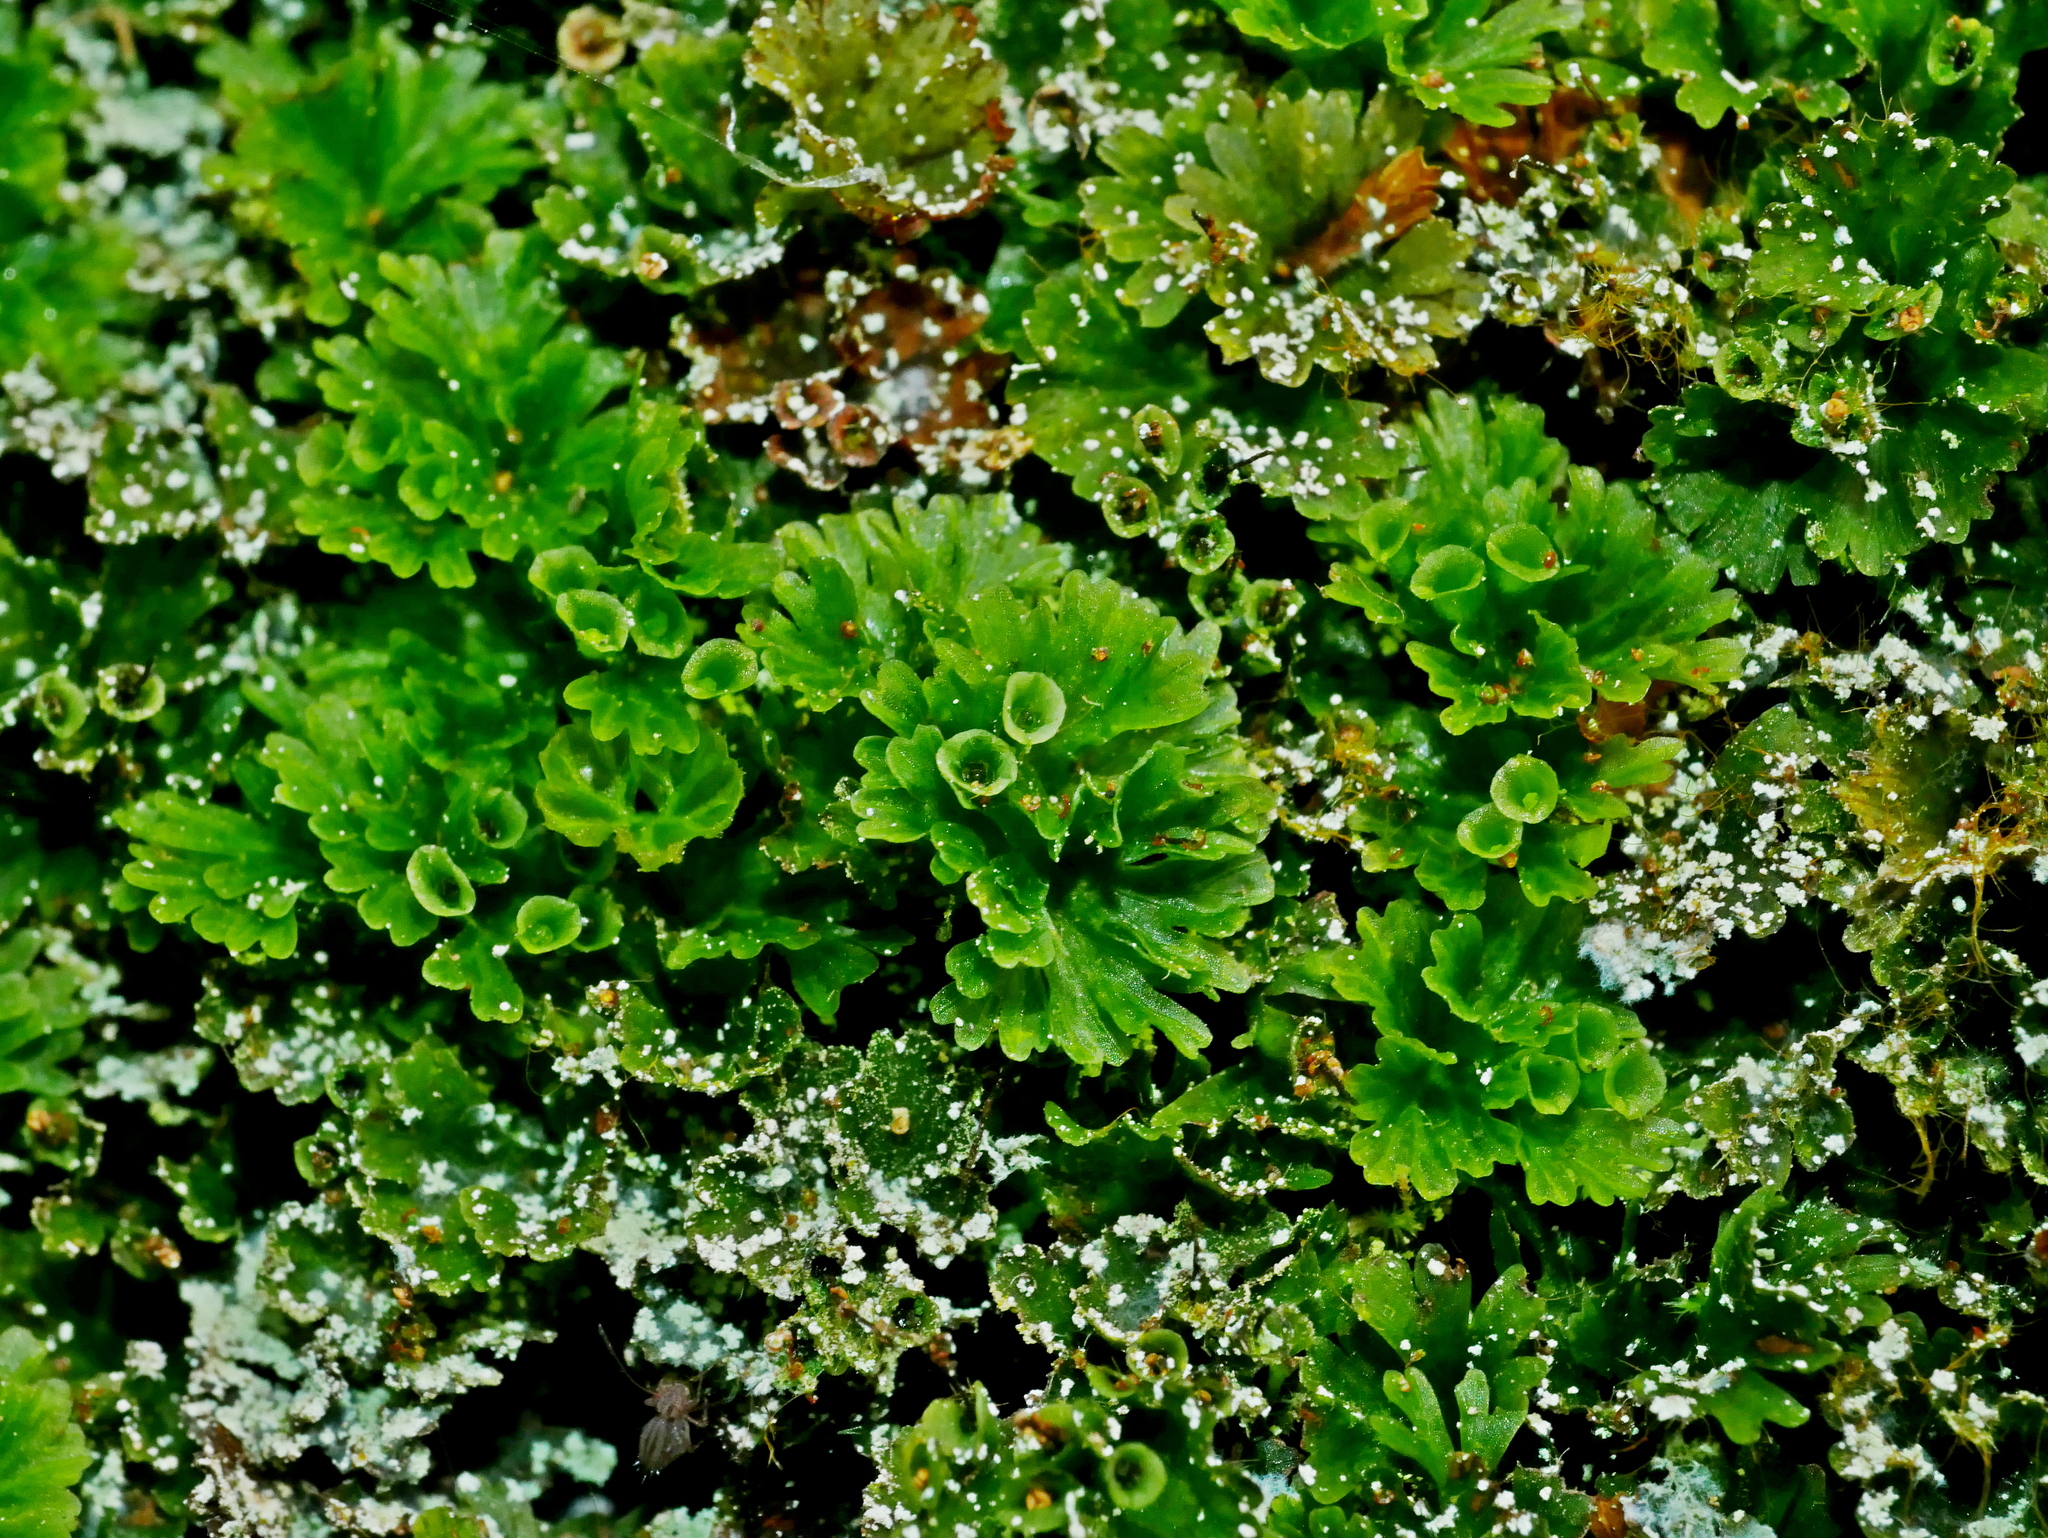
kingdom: Plantae
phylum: Tracheophyta
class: Polypodiopsida
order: Hymenophyllales
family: Hymenophyllaceae
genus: Crepidomanes
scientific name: Crepidomanes parvulum
